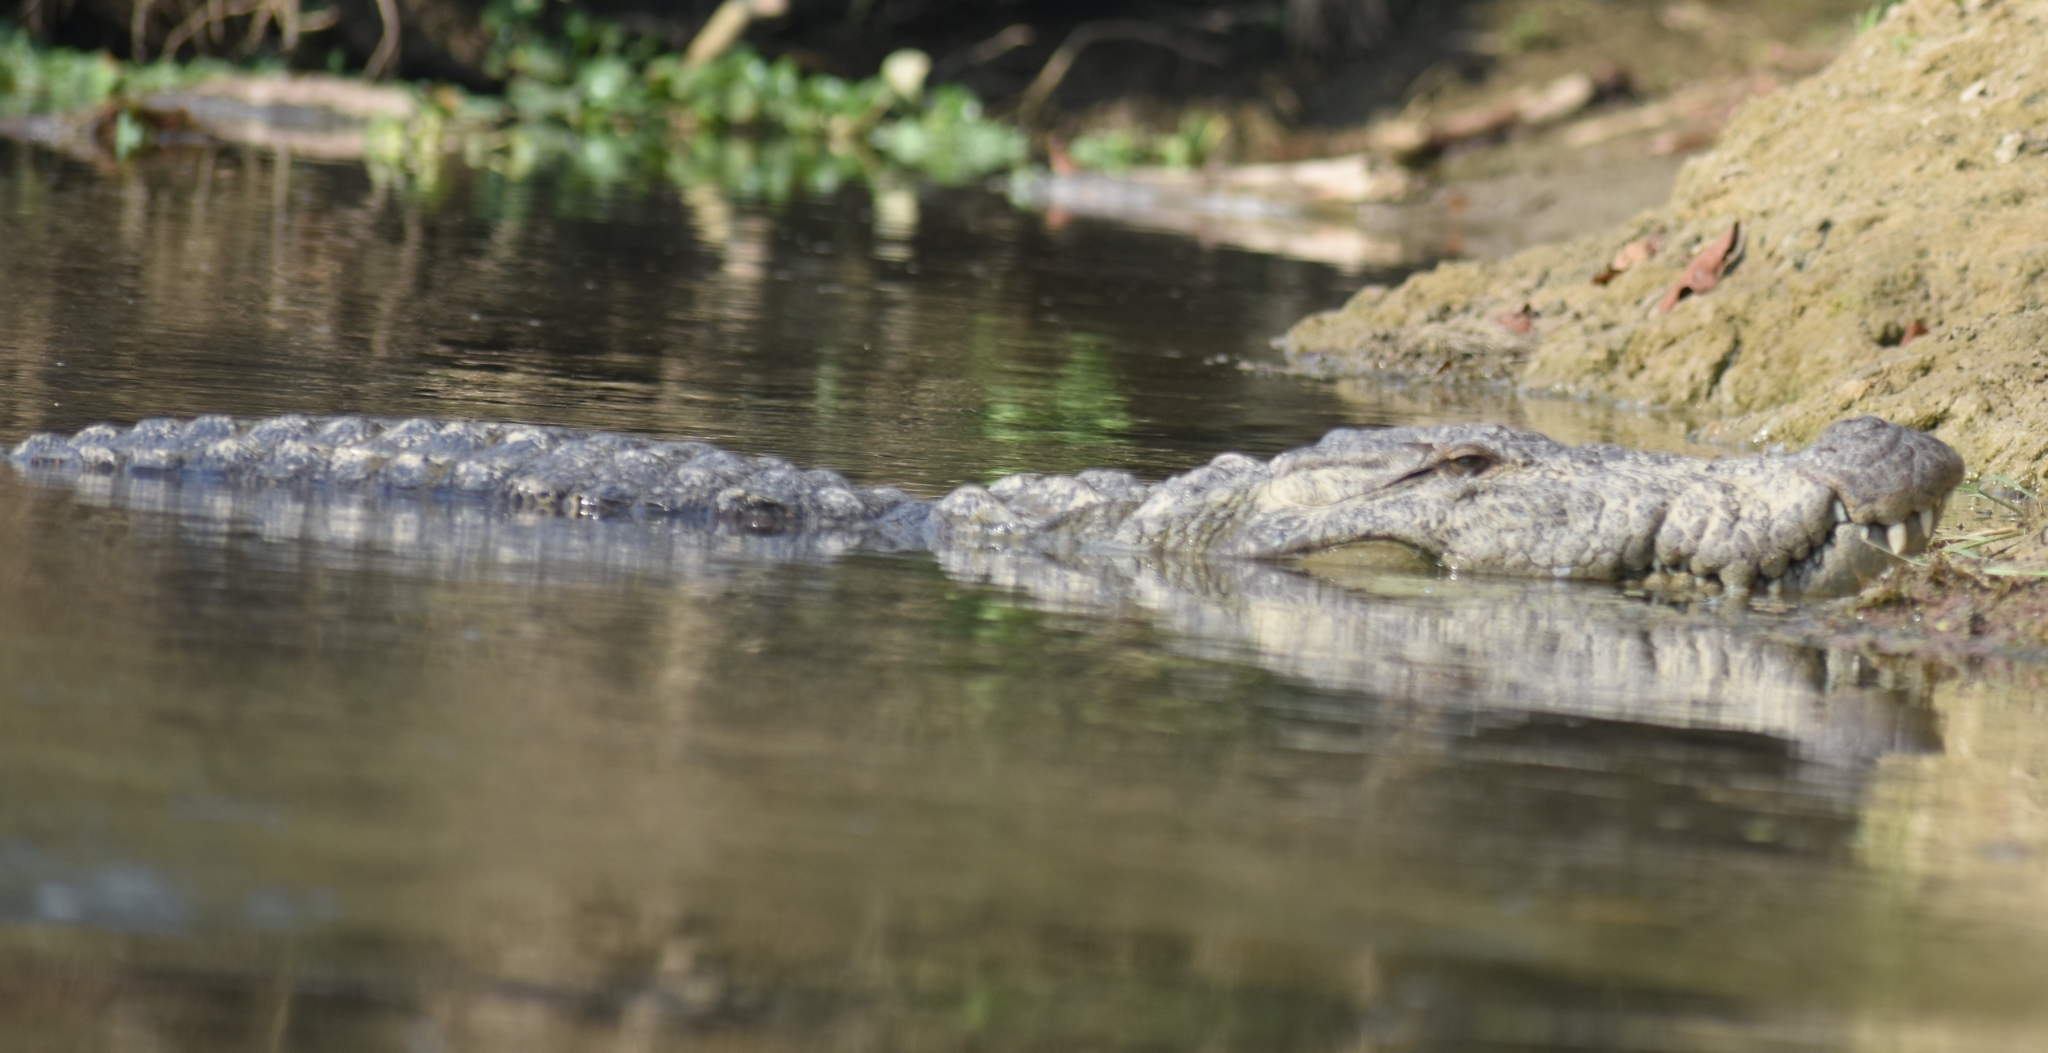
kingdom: Animalia
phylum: Chordata
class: Crocodylia
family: Crocodylidae
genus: Crocodylus
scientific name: Crocodylus palustris
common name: Mugger crocodile
